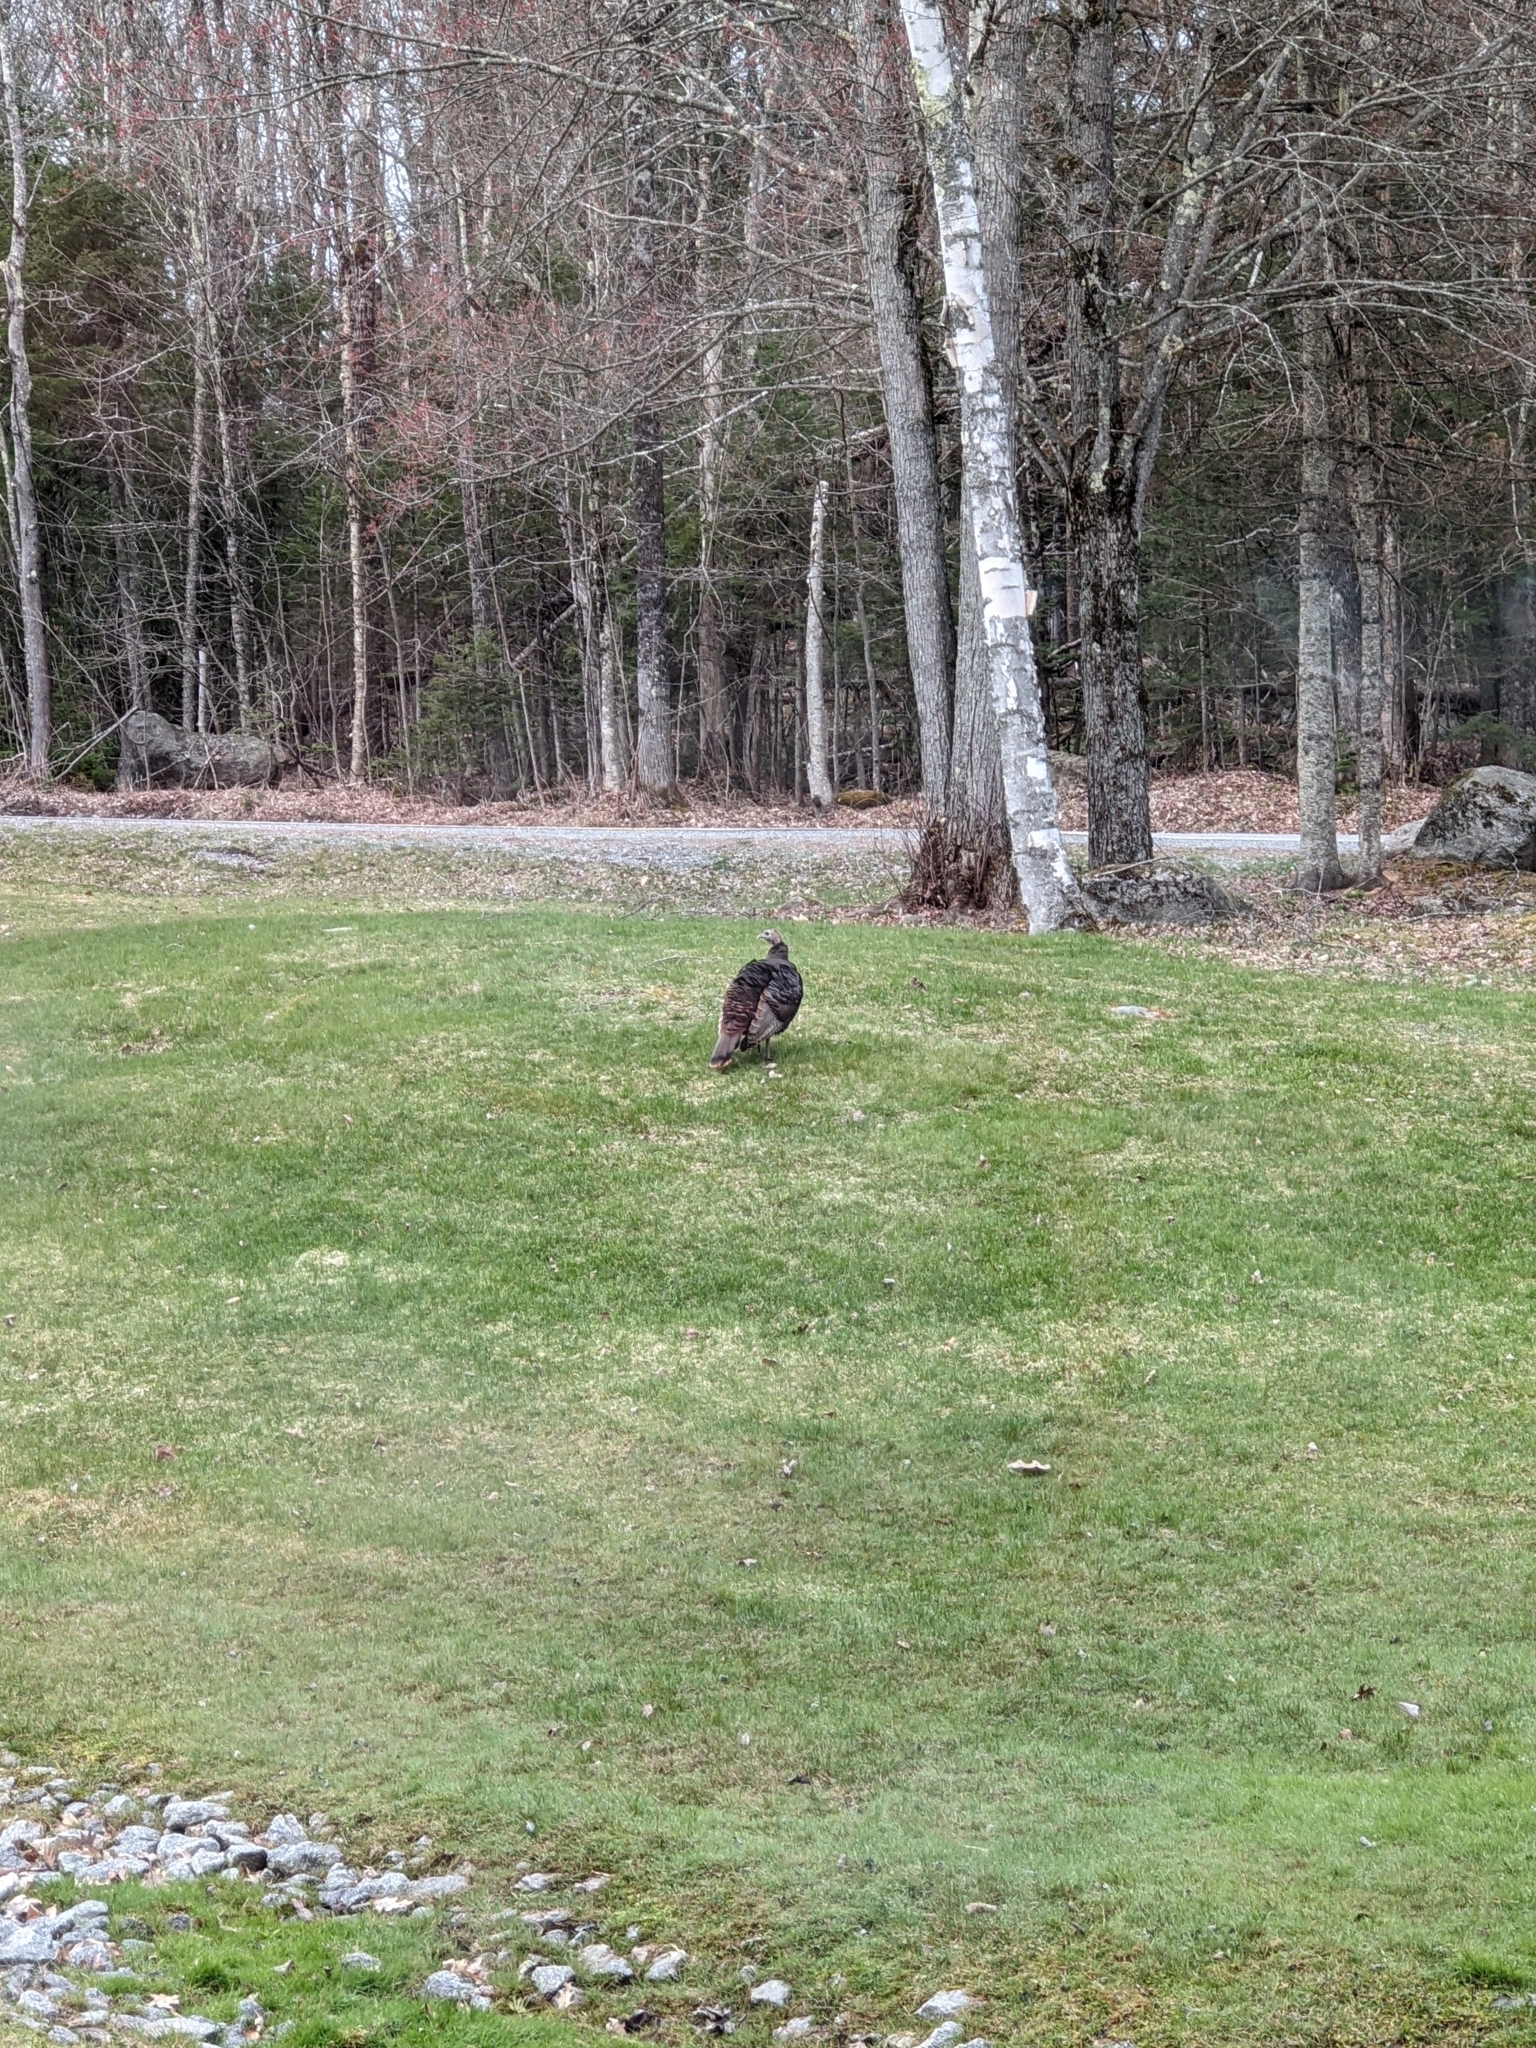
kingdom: Animalia
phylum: Chordata
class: Aves
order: Galliformes
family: Phasianidae
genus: Meleagris
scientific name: Meleagris gallopavo
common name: Wild turkey
